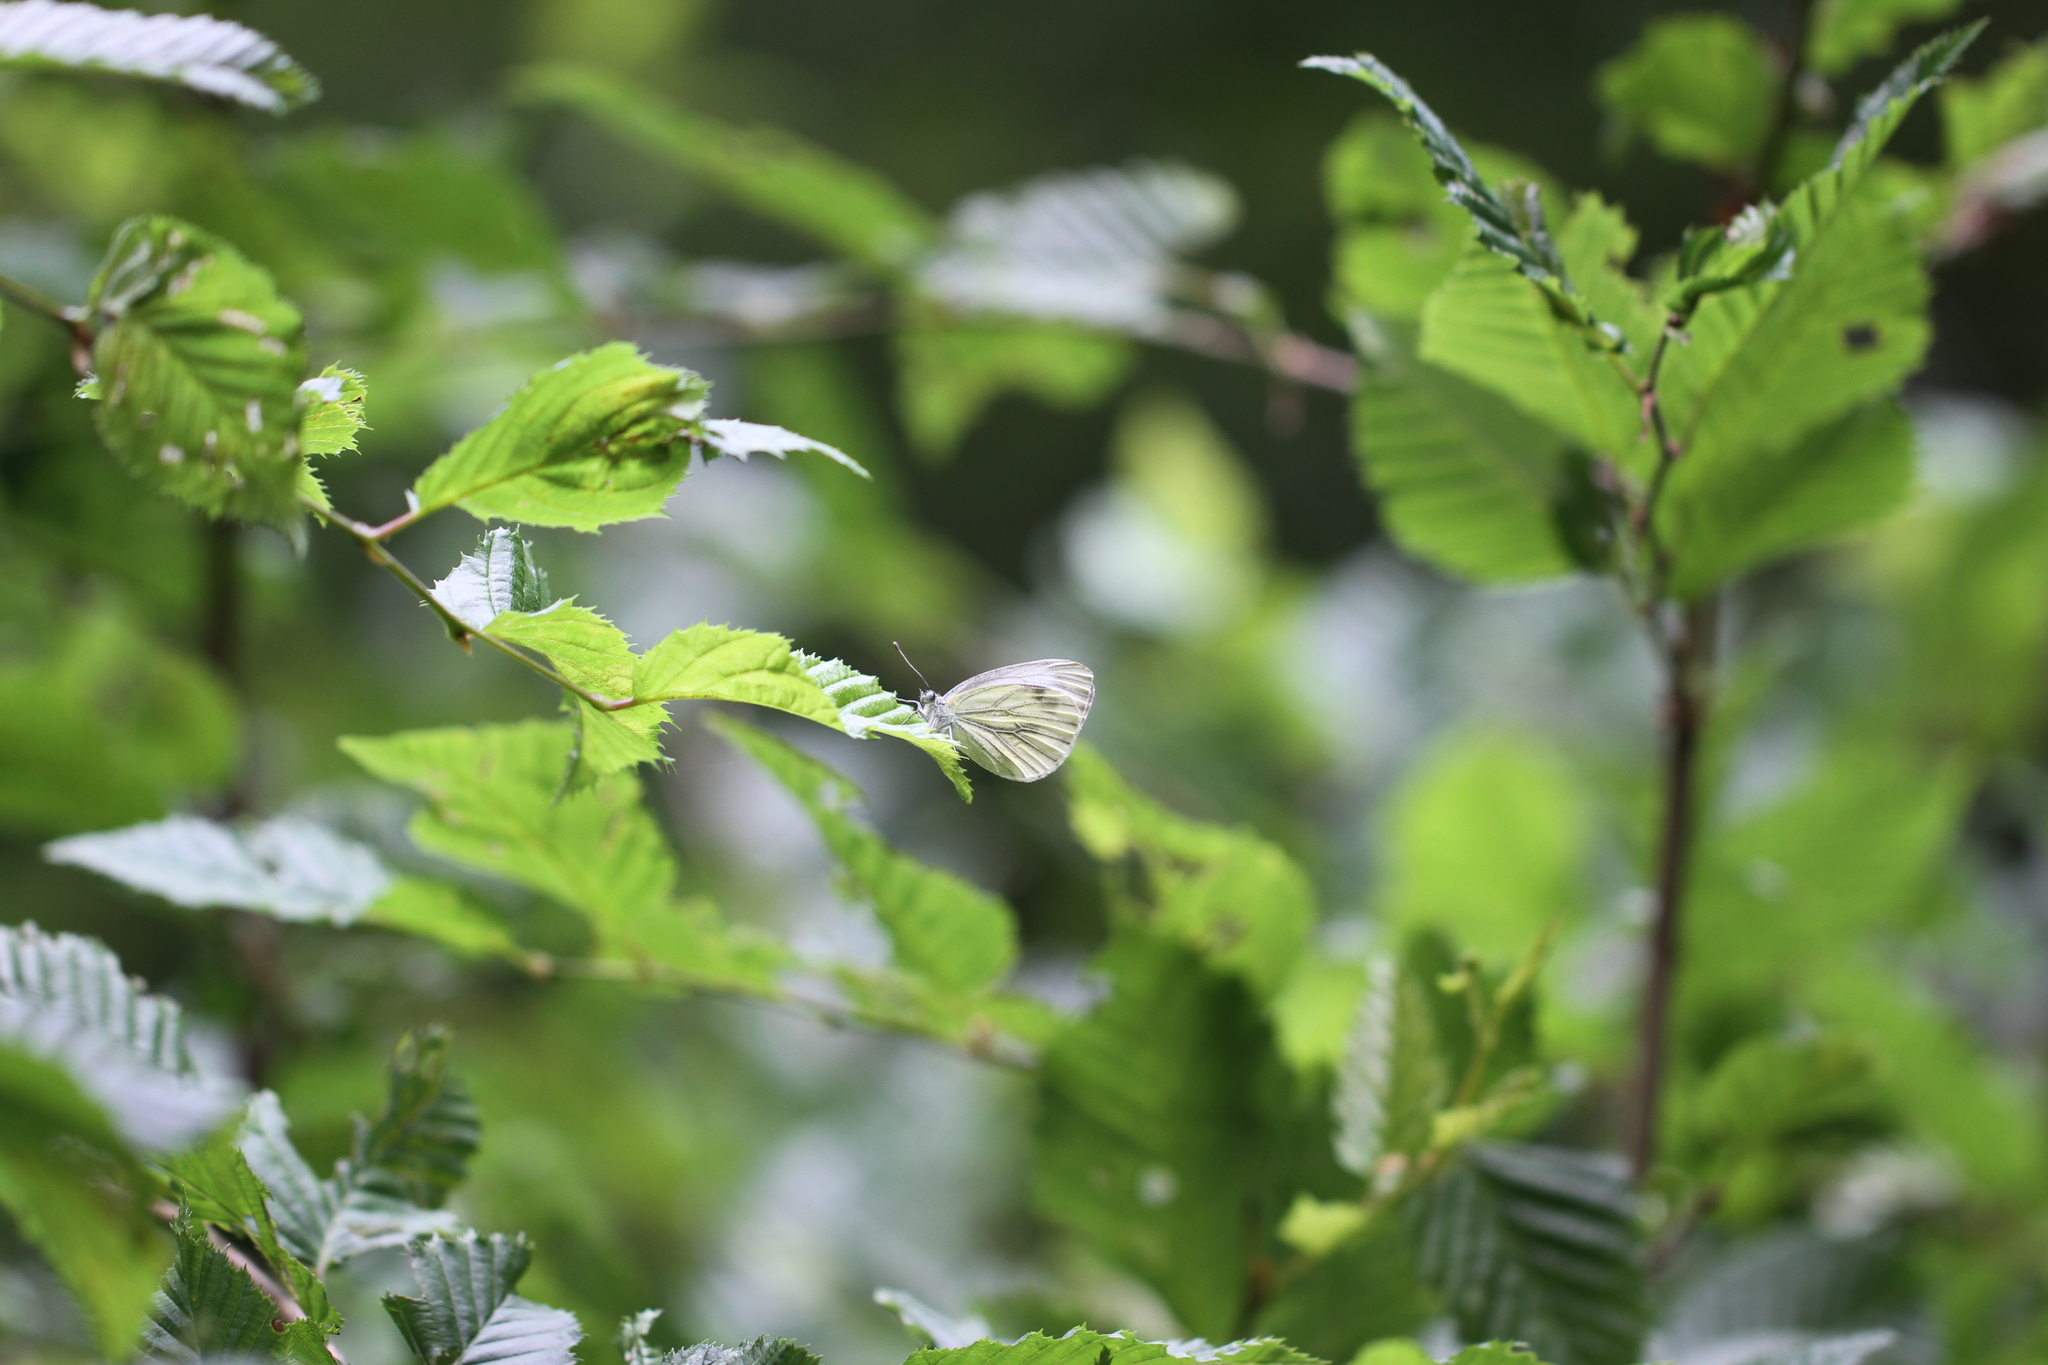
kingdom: Animalia
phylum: Arthropoda
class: Insecta
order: Lepidoptera
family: Pieridae
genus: Pieris
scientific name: Pieris napi
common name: Green-veined white
